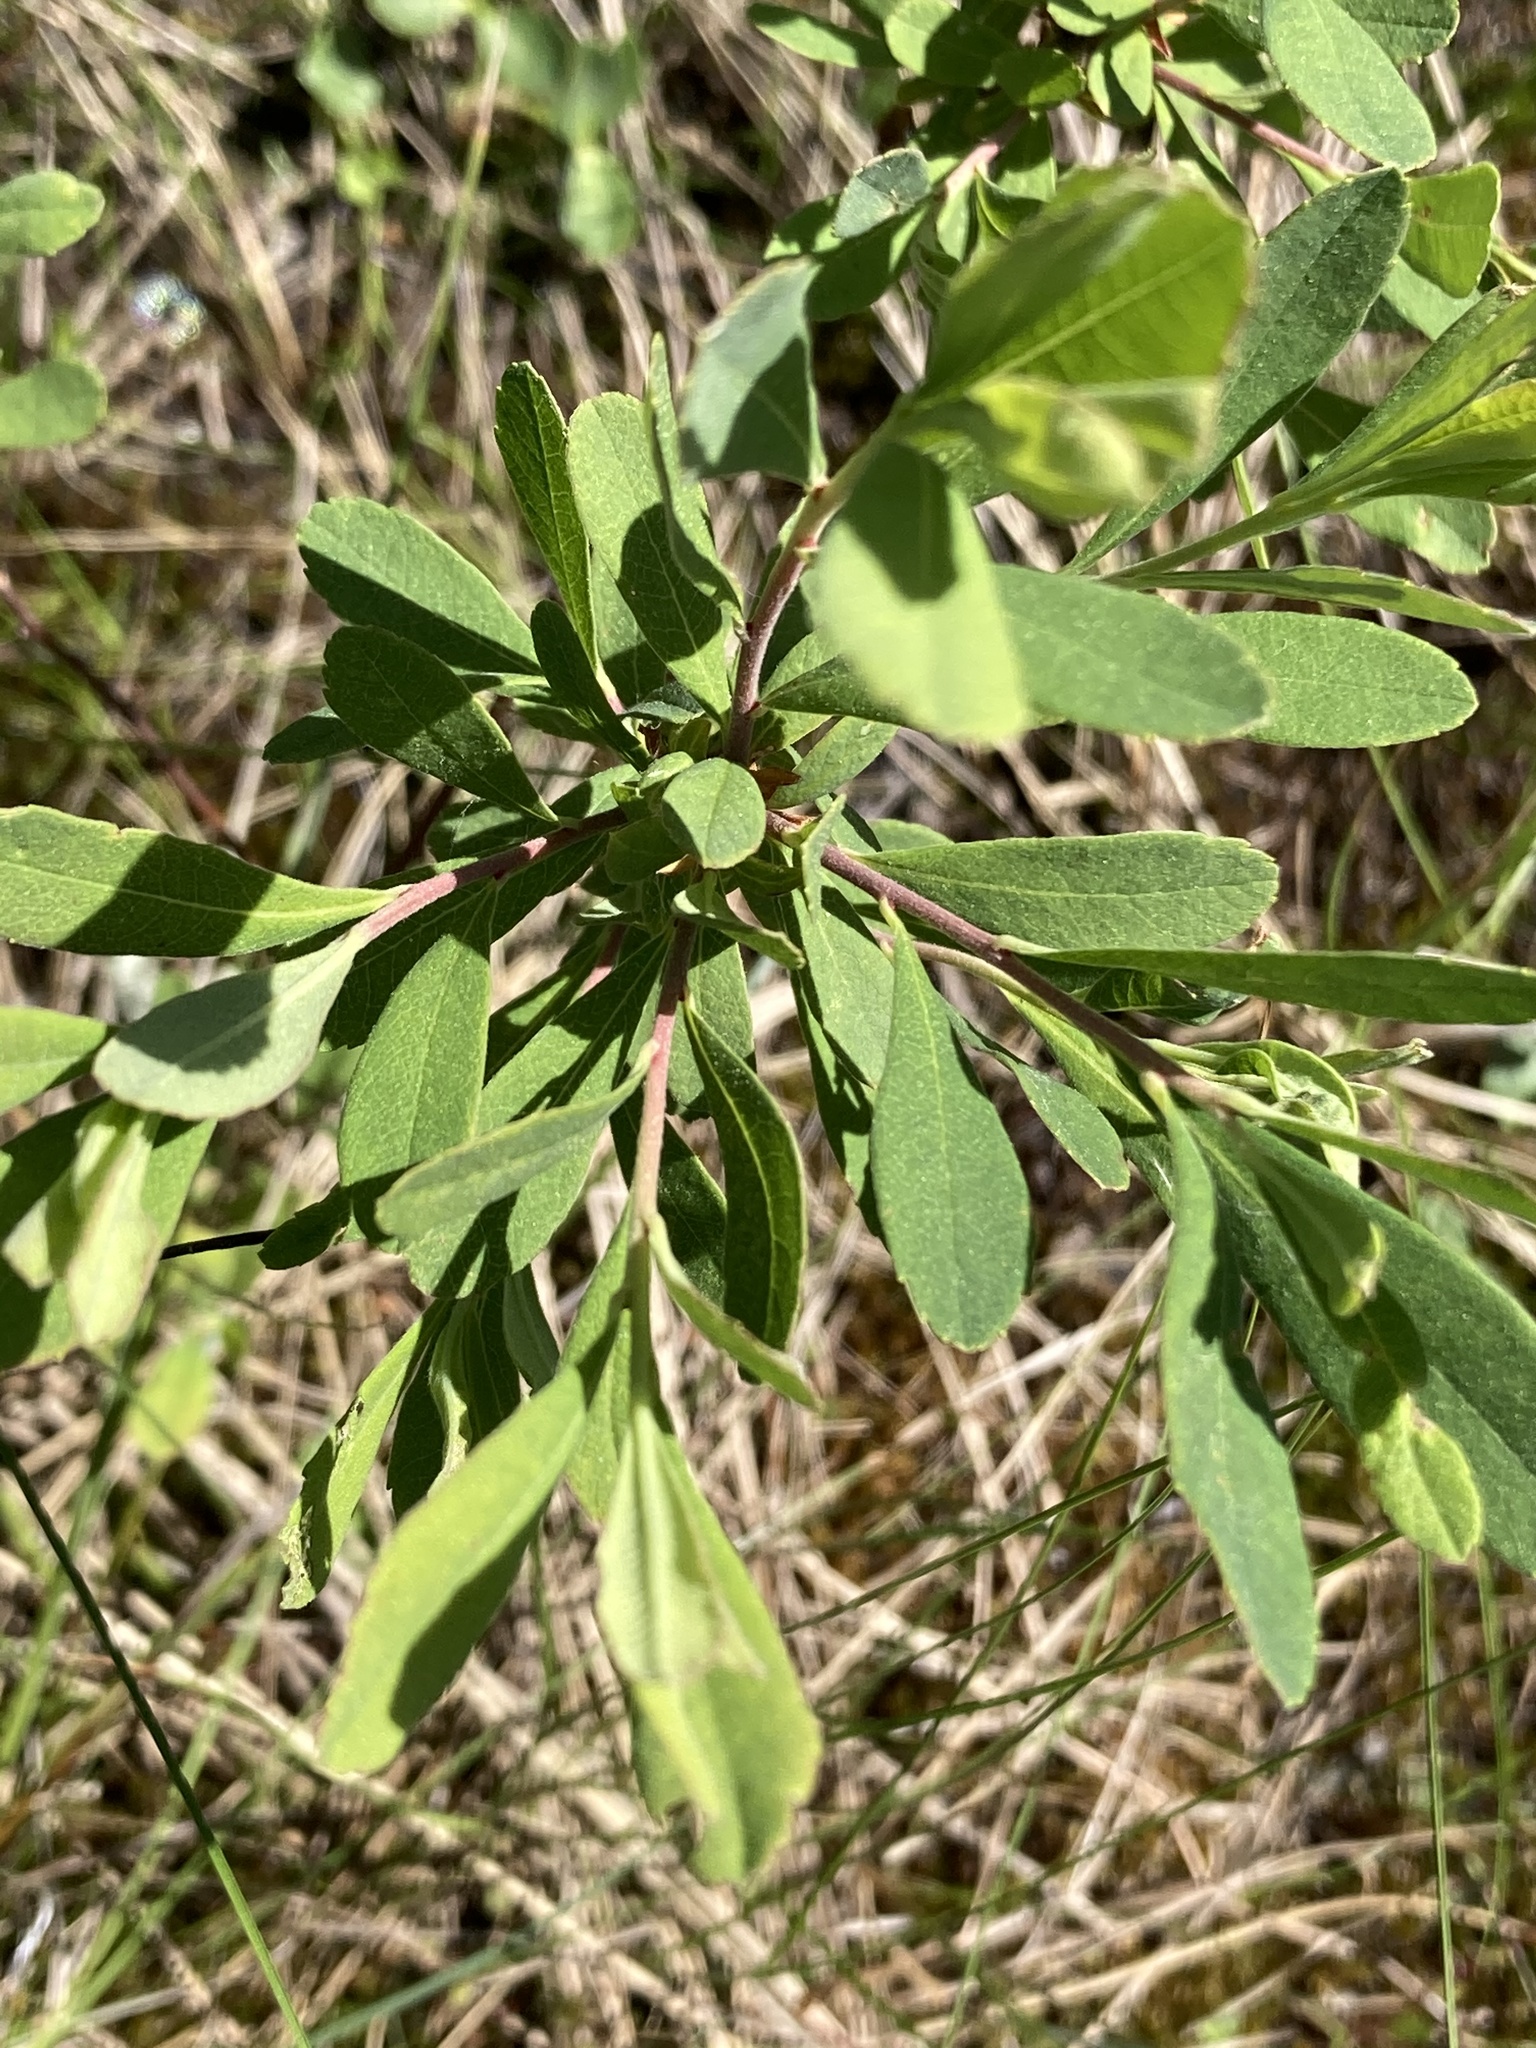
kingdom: Plantae
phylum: Tracheophyta
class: Magnoliopsida
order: Fagales
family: Myricaceae
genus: Myrica
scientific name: Myrica gale
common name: Sweet gale
